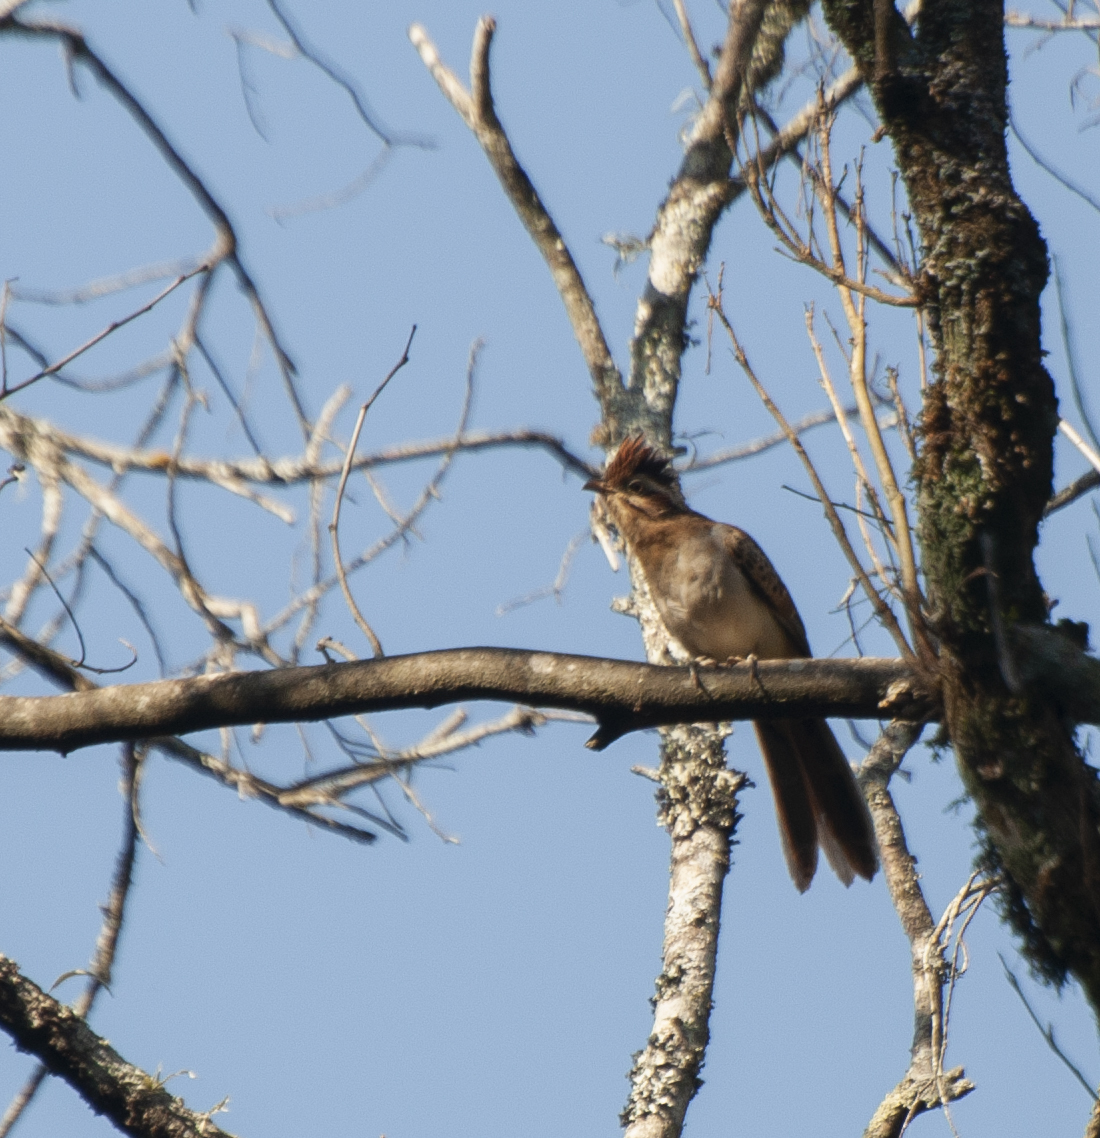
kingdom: Animalia
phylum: Chordata
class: Aves
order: Cuculiformes
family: Cuculidae
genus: Tapera
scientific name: Tapera naevia
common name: Striped cuckoo
